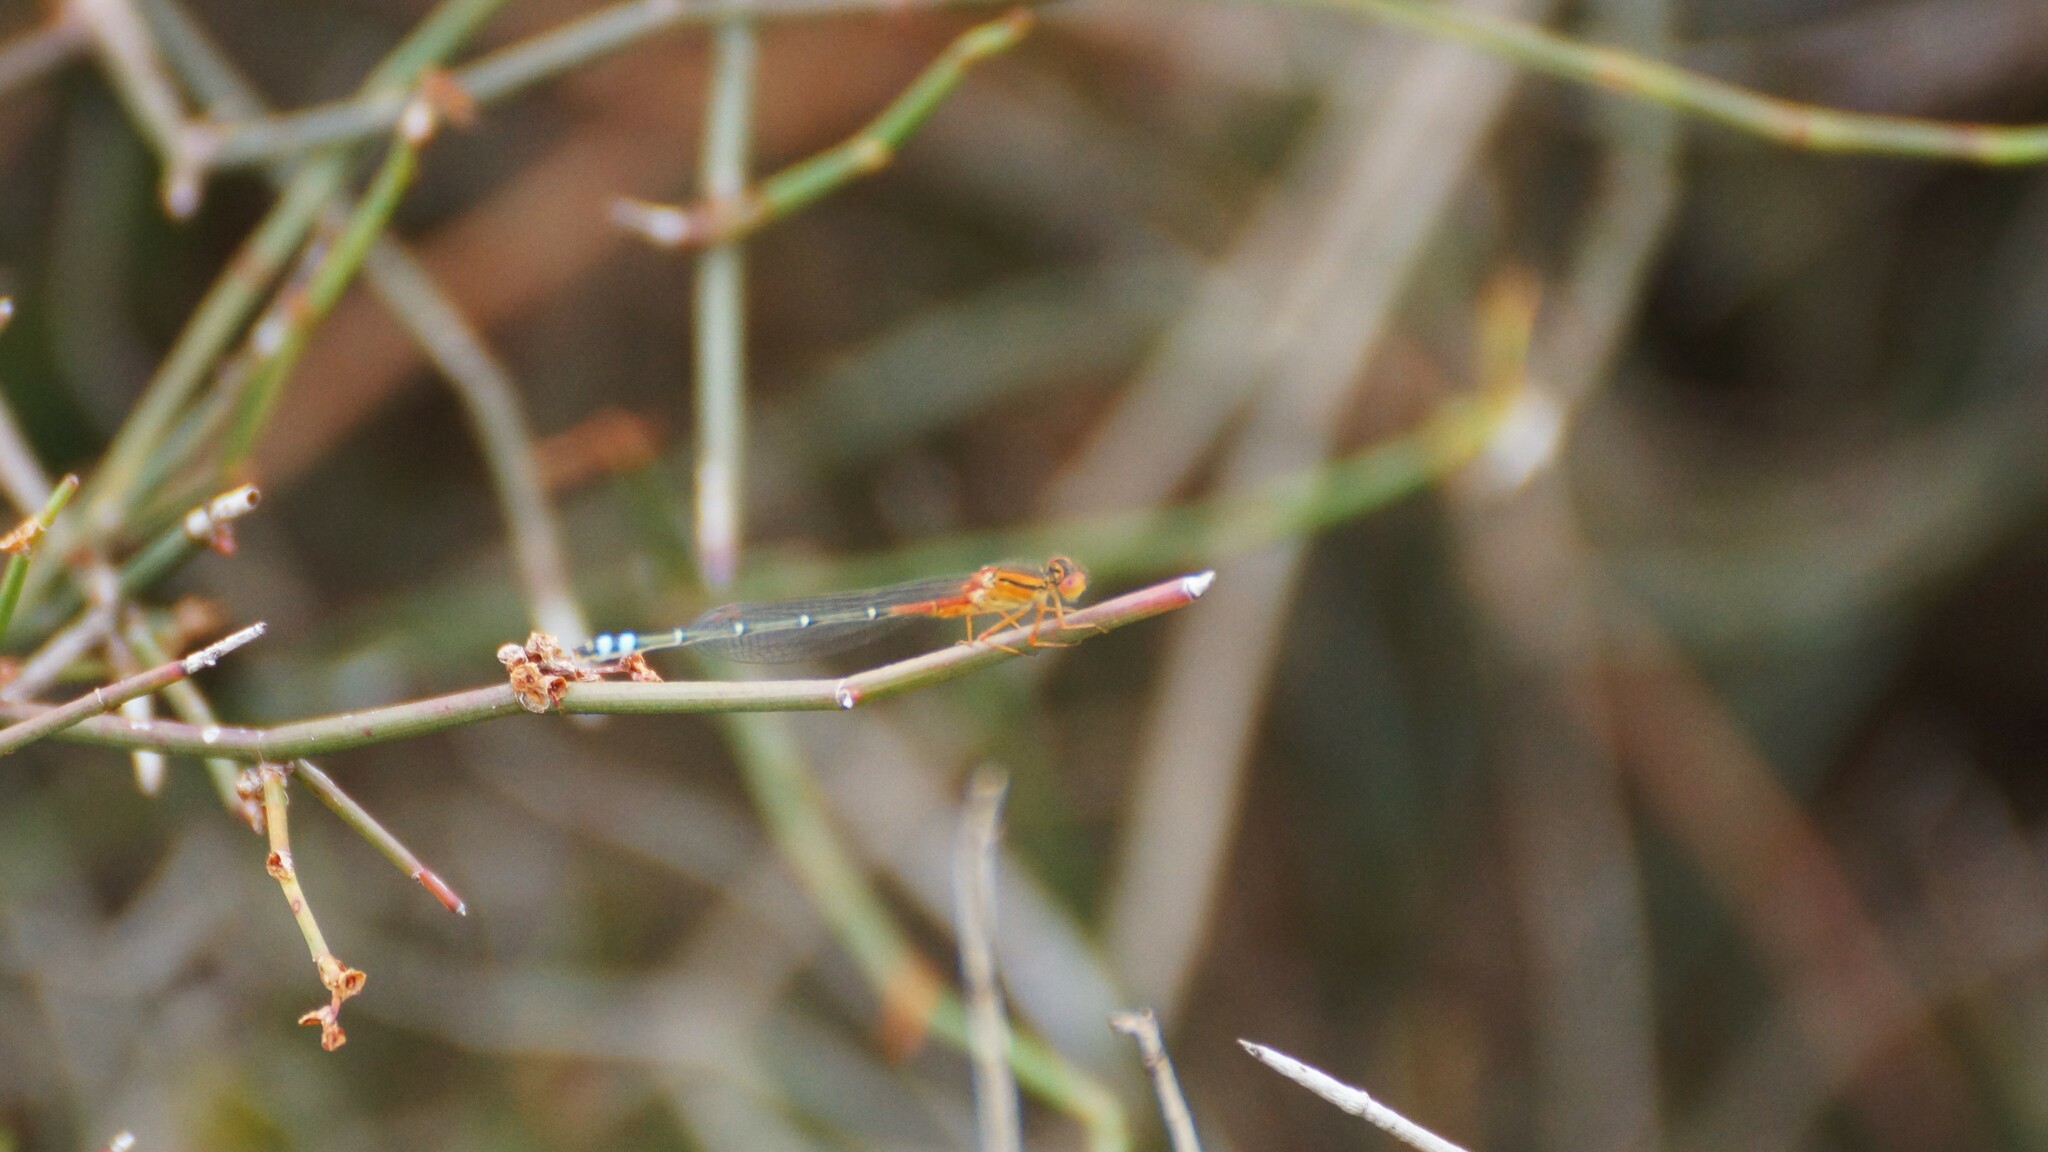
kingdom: Animalia
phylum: Arthropoda
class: Insecta
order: Odonata
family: Coenagrionidae
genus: Xanthagrion
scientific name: Xanthagrion erythroneurum
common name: Red and blue damsel
